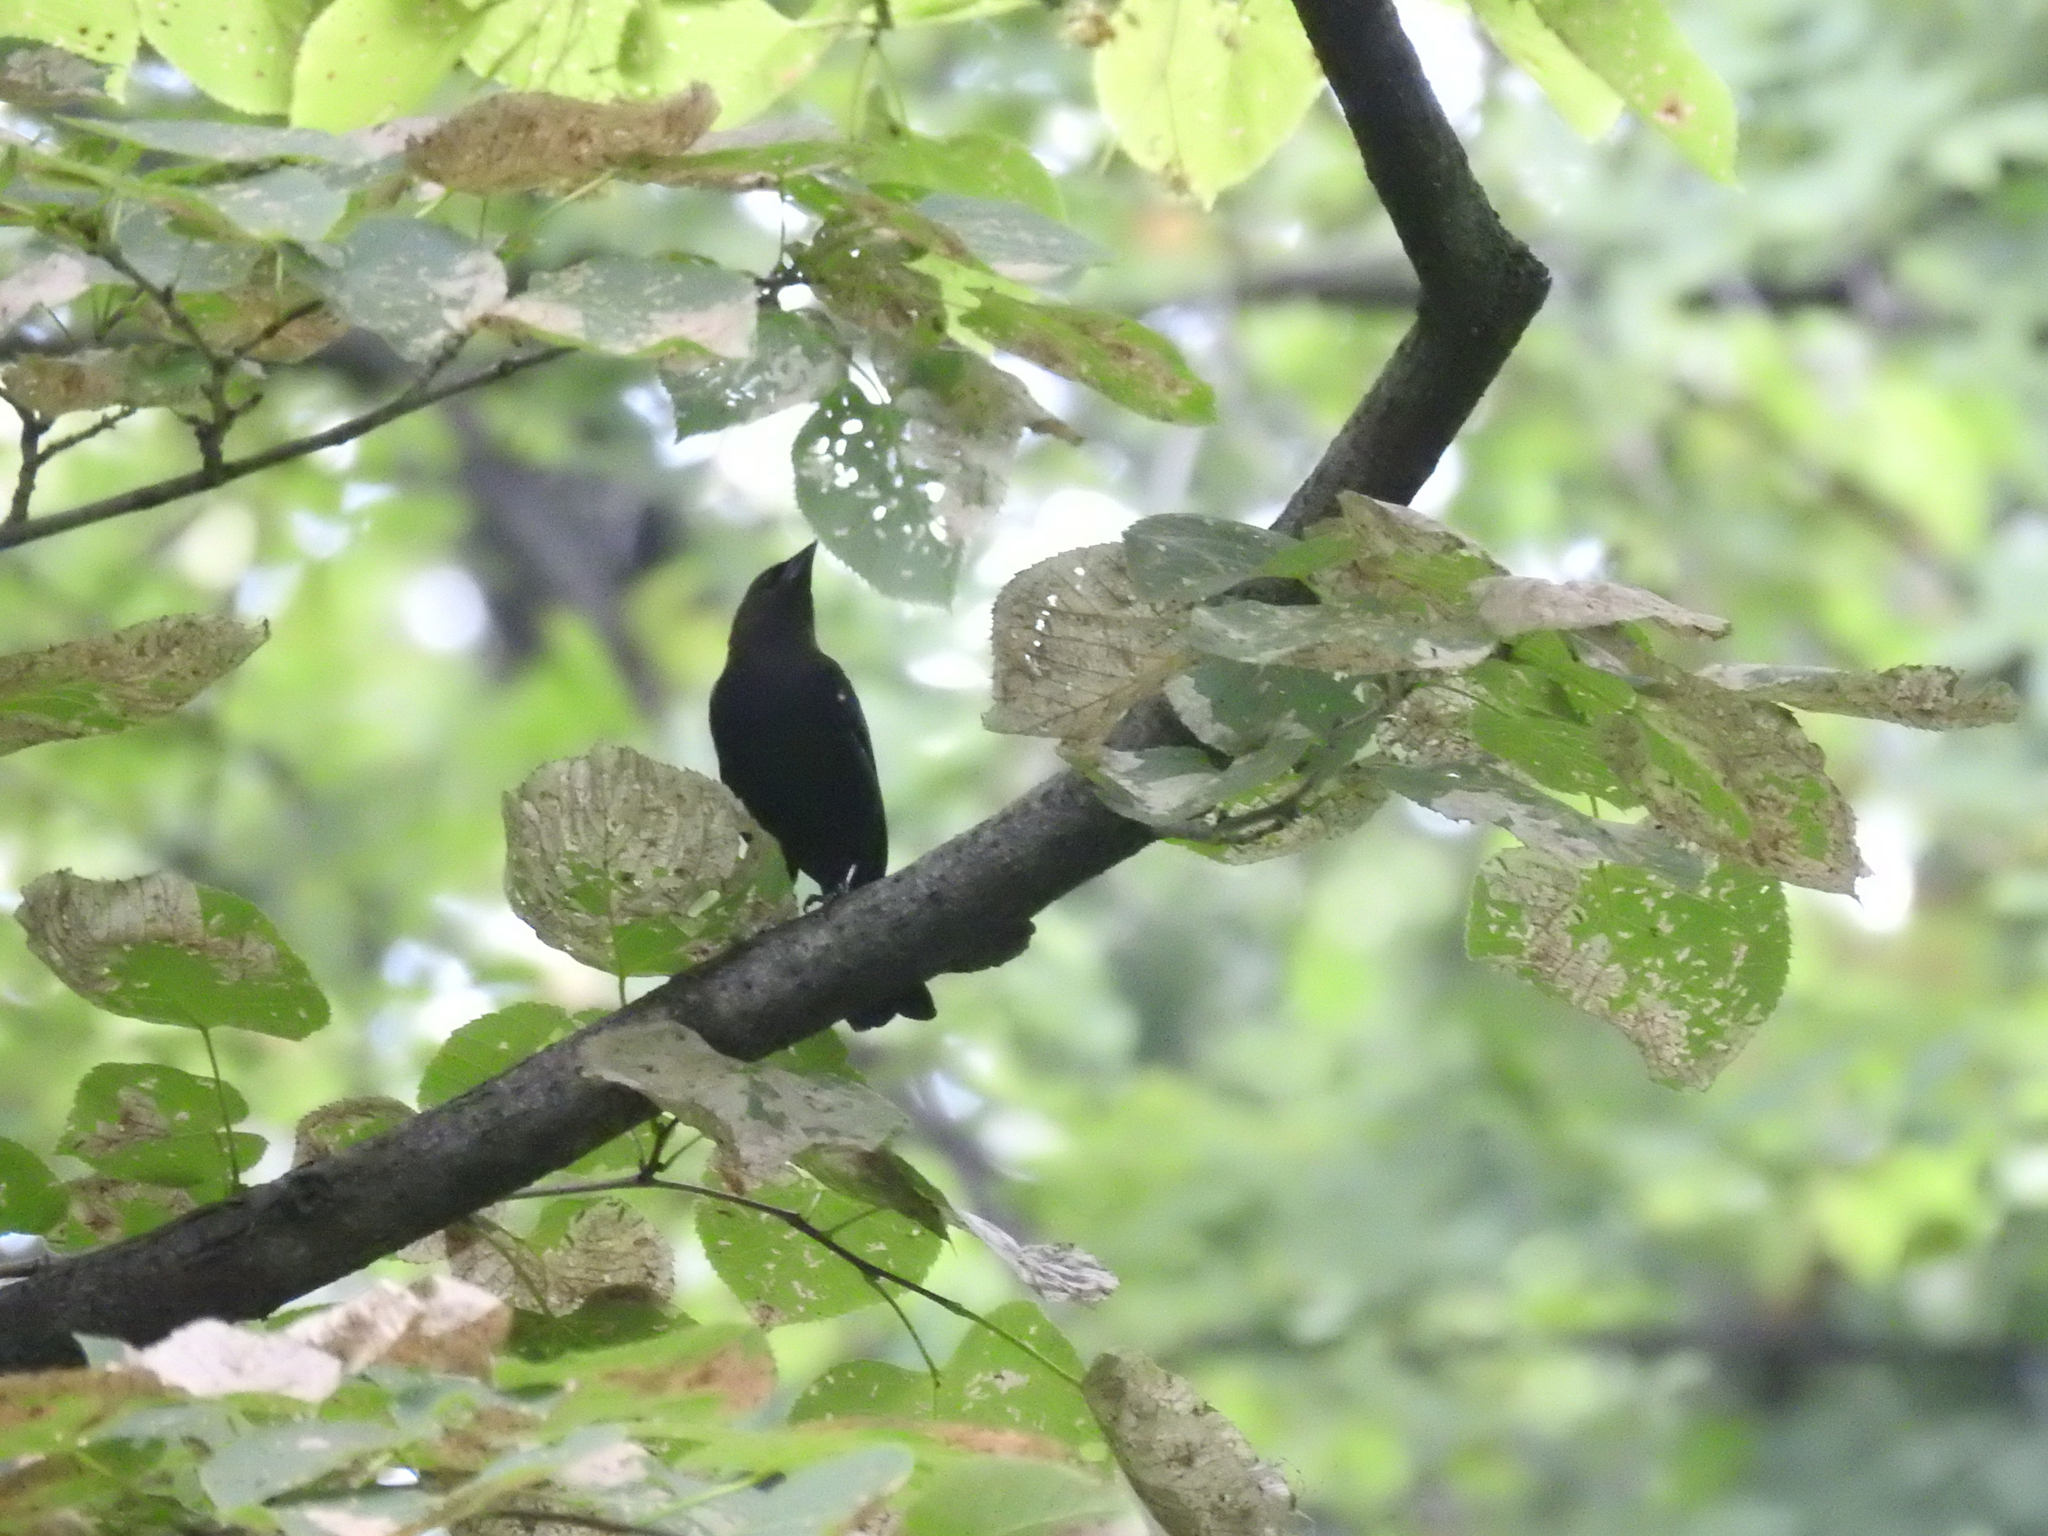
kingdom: Animalia
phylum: Chordata
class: Aves
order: Passeriformes
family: Icteridae
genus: Molothrus
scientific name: Molothrus ater
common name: Brown-headed cowbird
